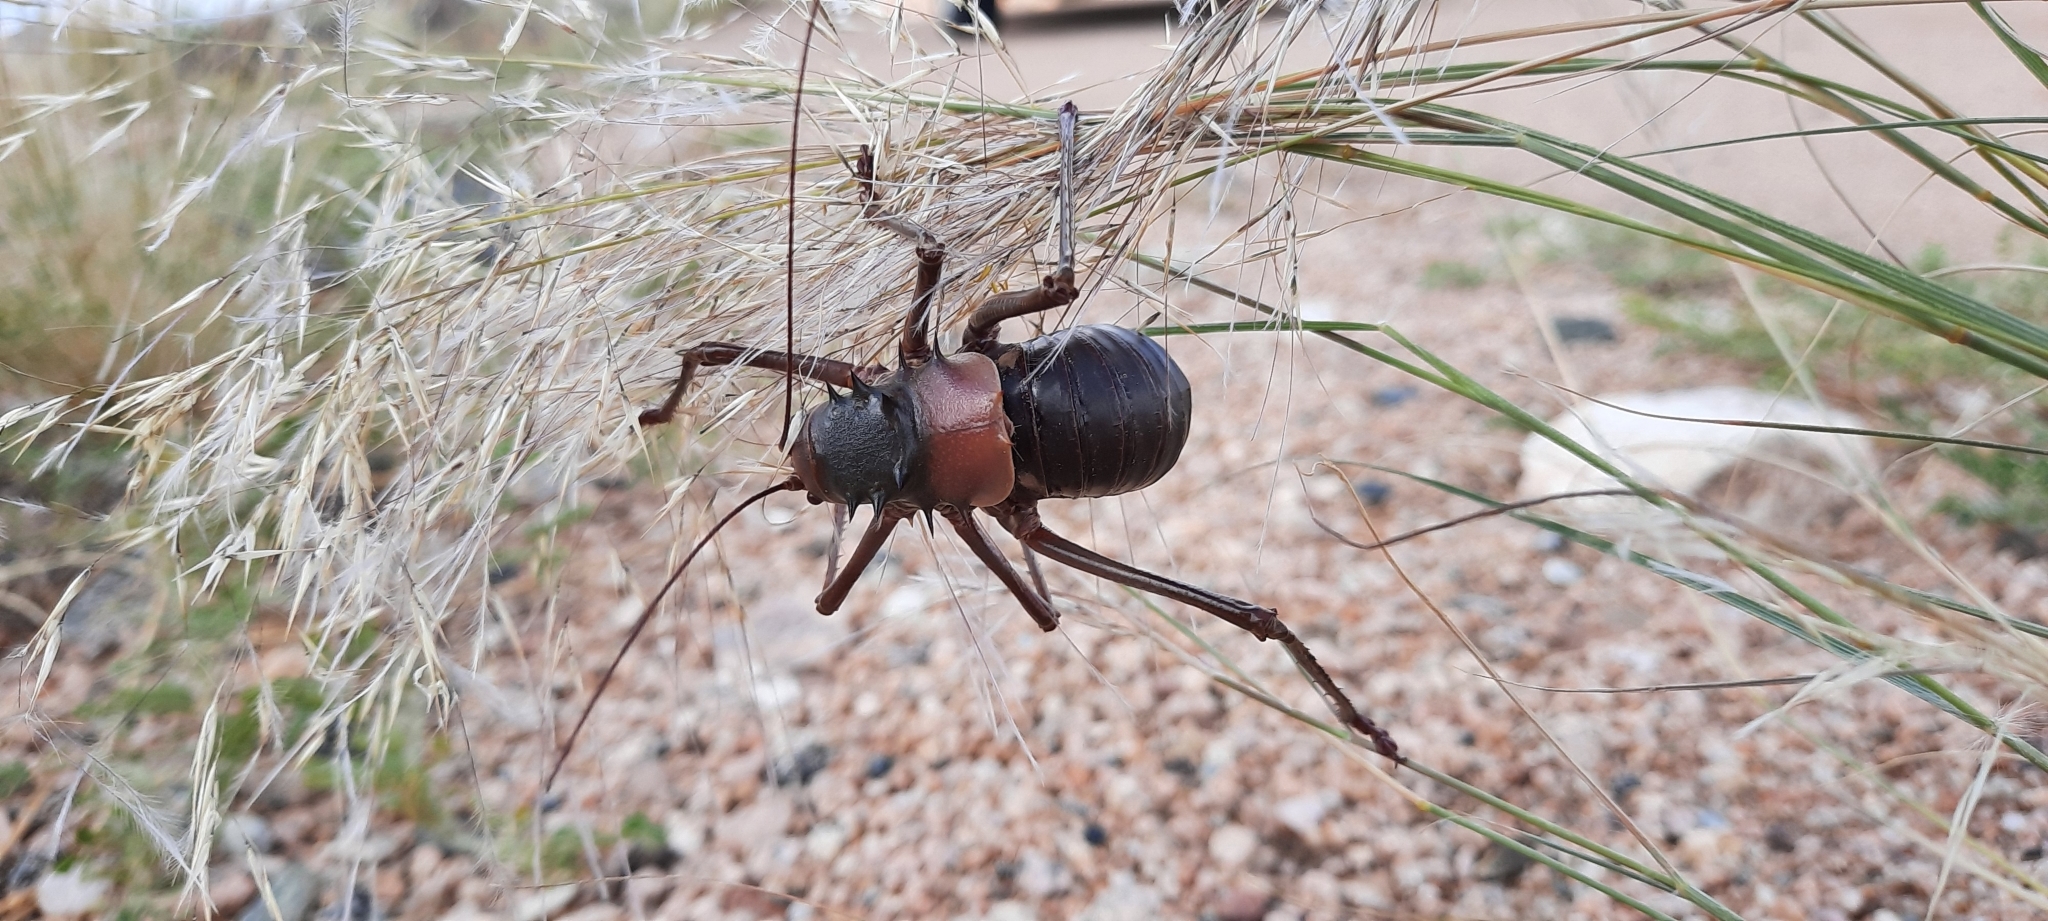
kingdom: Animalia
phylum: Arthropoda
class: Insecta
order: Orthoptera
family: Tettigoniidae
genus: Acanthoplus
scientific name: Acanthoplus discoidalis
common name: Armoured katydid
